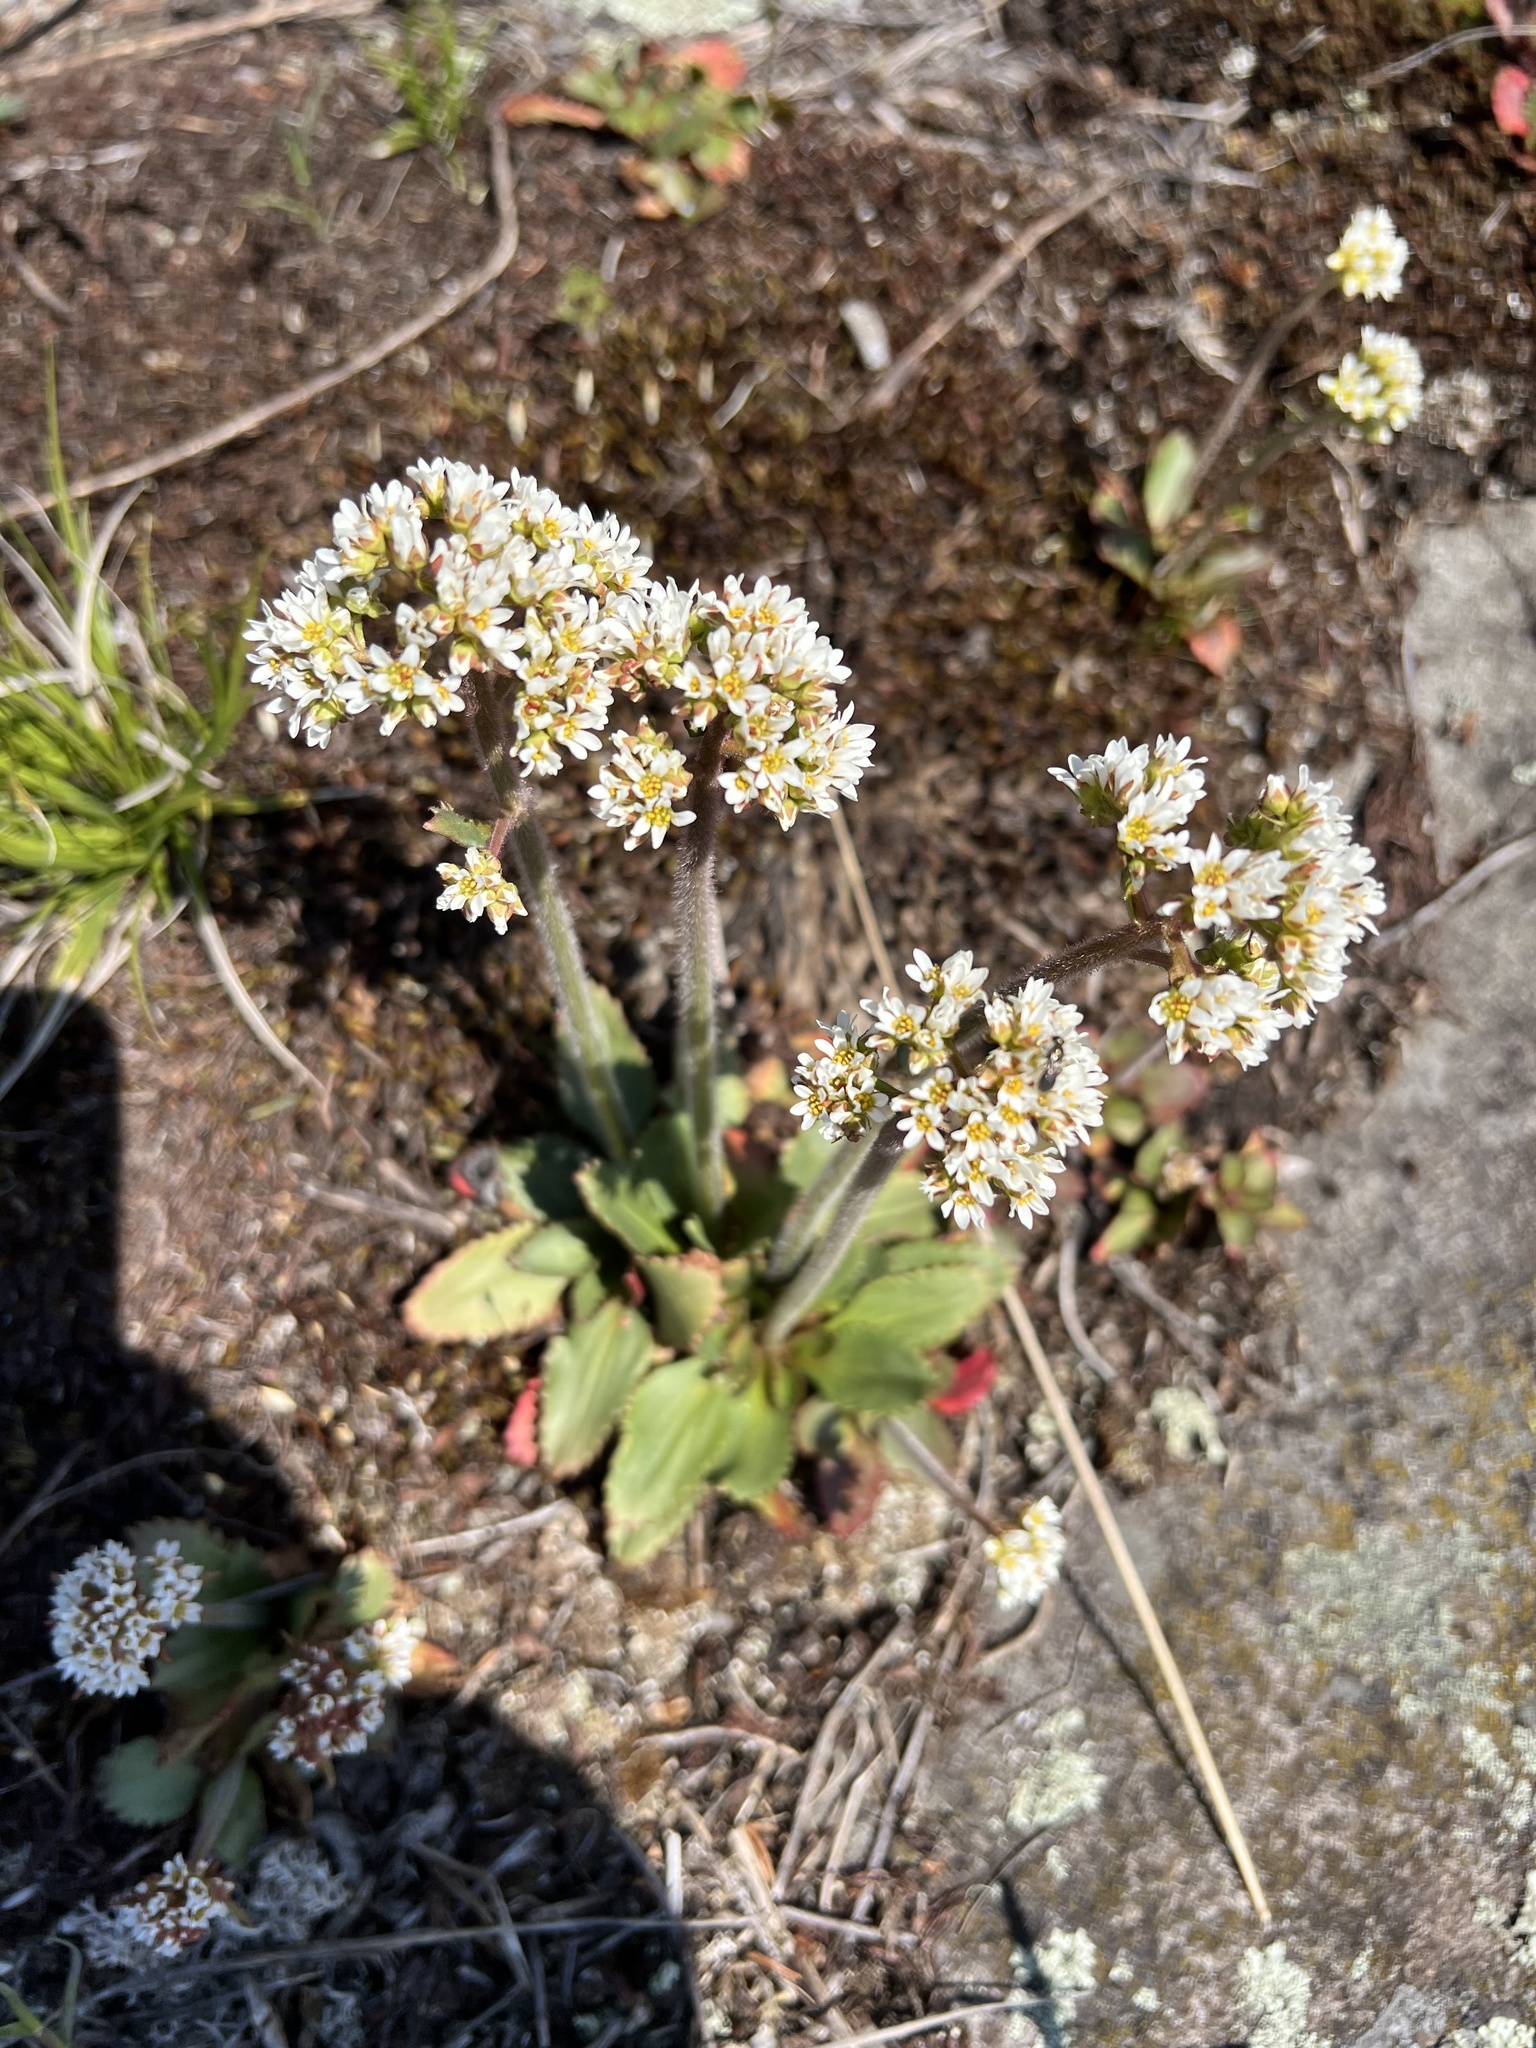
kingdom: Plantae
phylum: Tracheophyta
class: Magnoliopsida
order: Saxifragales
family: Saxifragaceae
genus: Micranthes
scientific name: Micranthes virginiensis
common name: Early saxifrage
